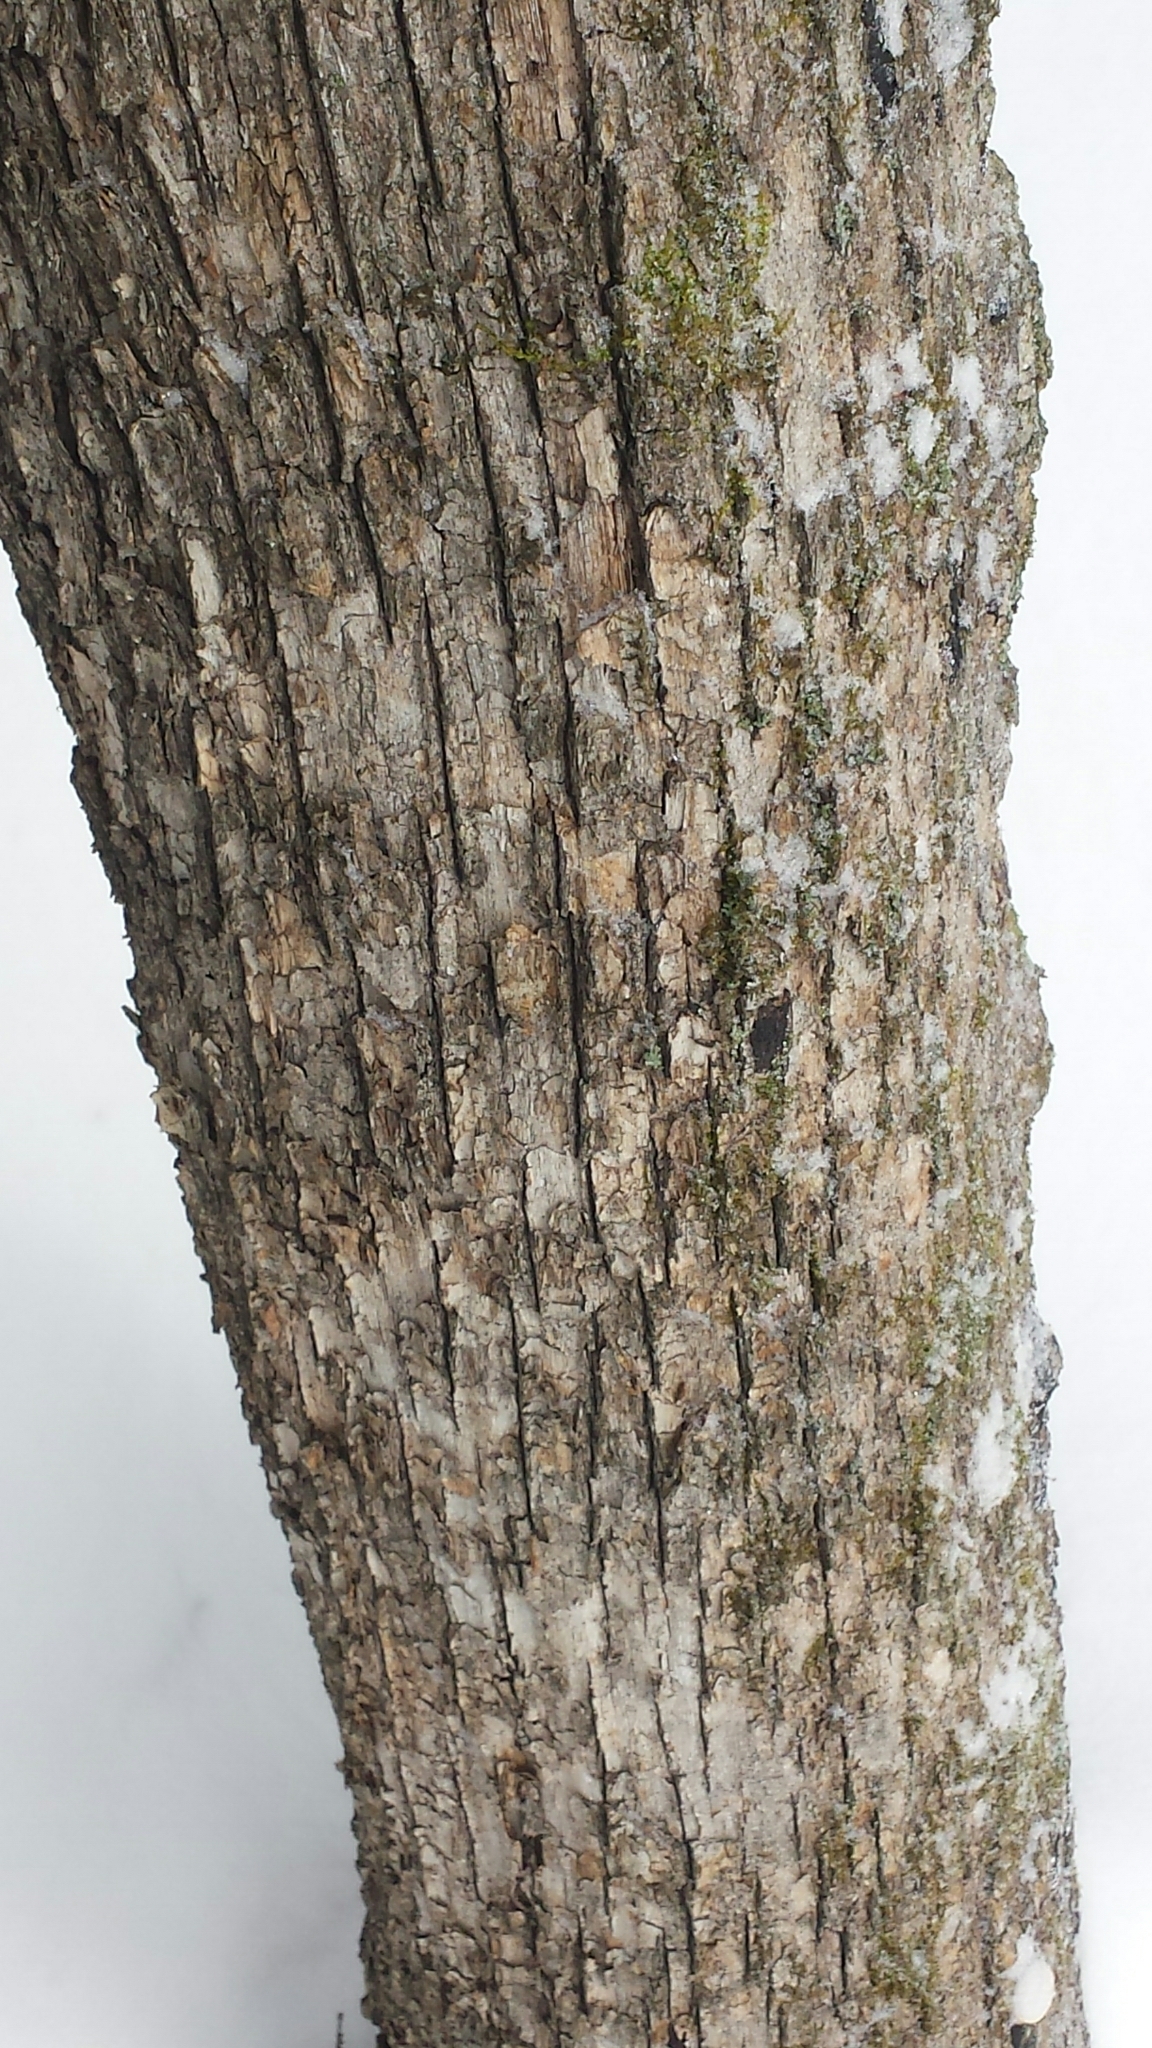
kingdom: Plantae
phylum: Tracheophyta
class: Magnoliopsida
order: Fagales
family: Betulaceae
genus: Ostrya
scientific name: Ostrya virginiana
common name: Ironwood
